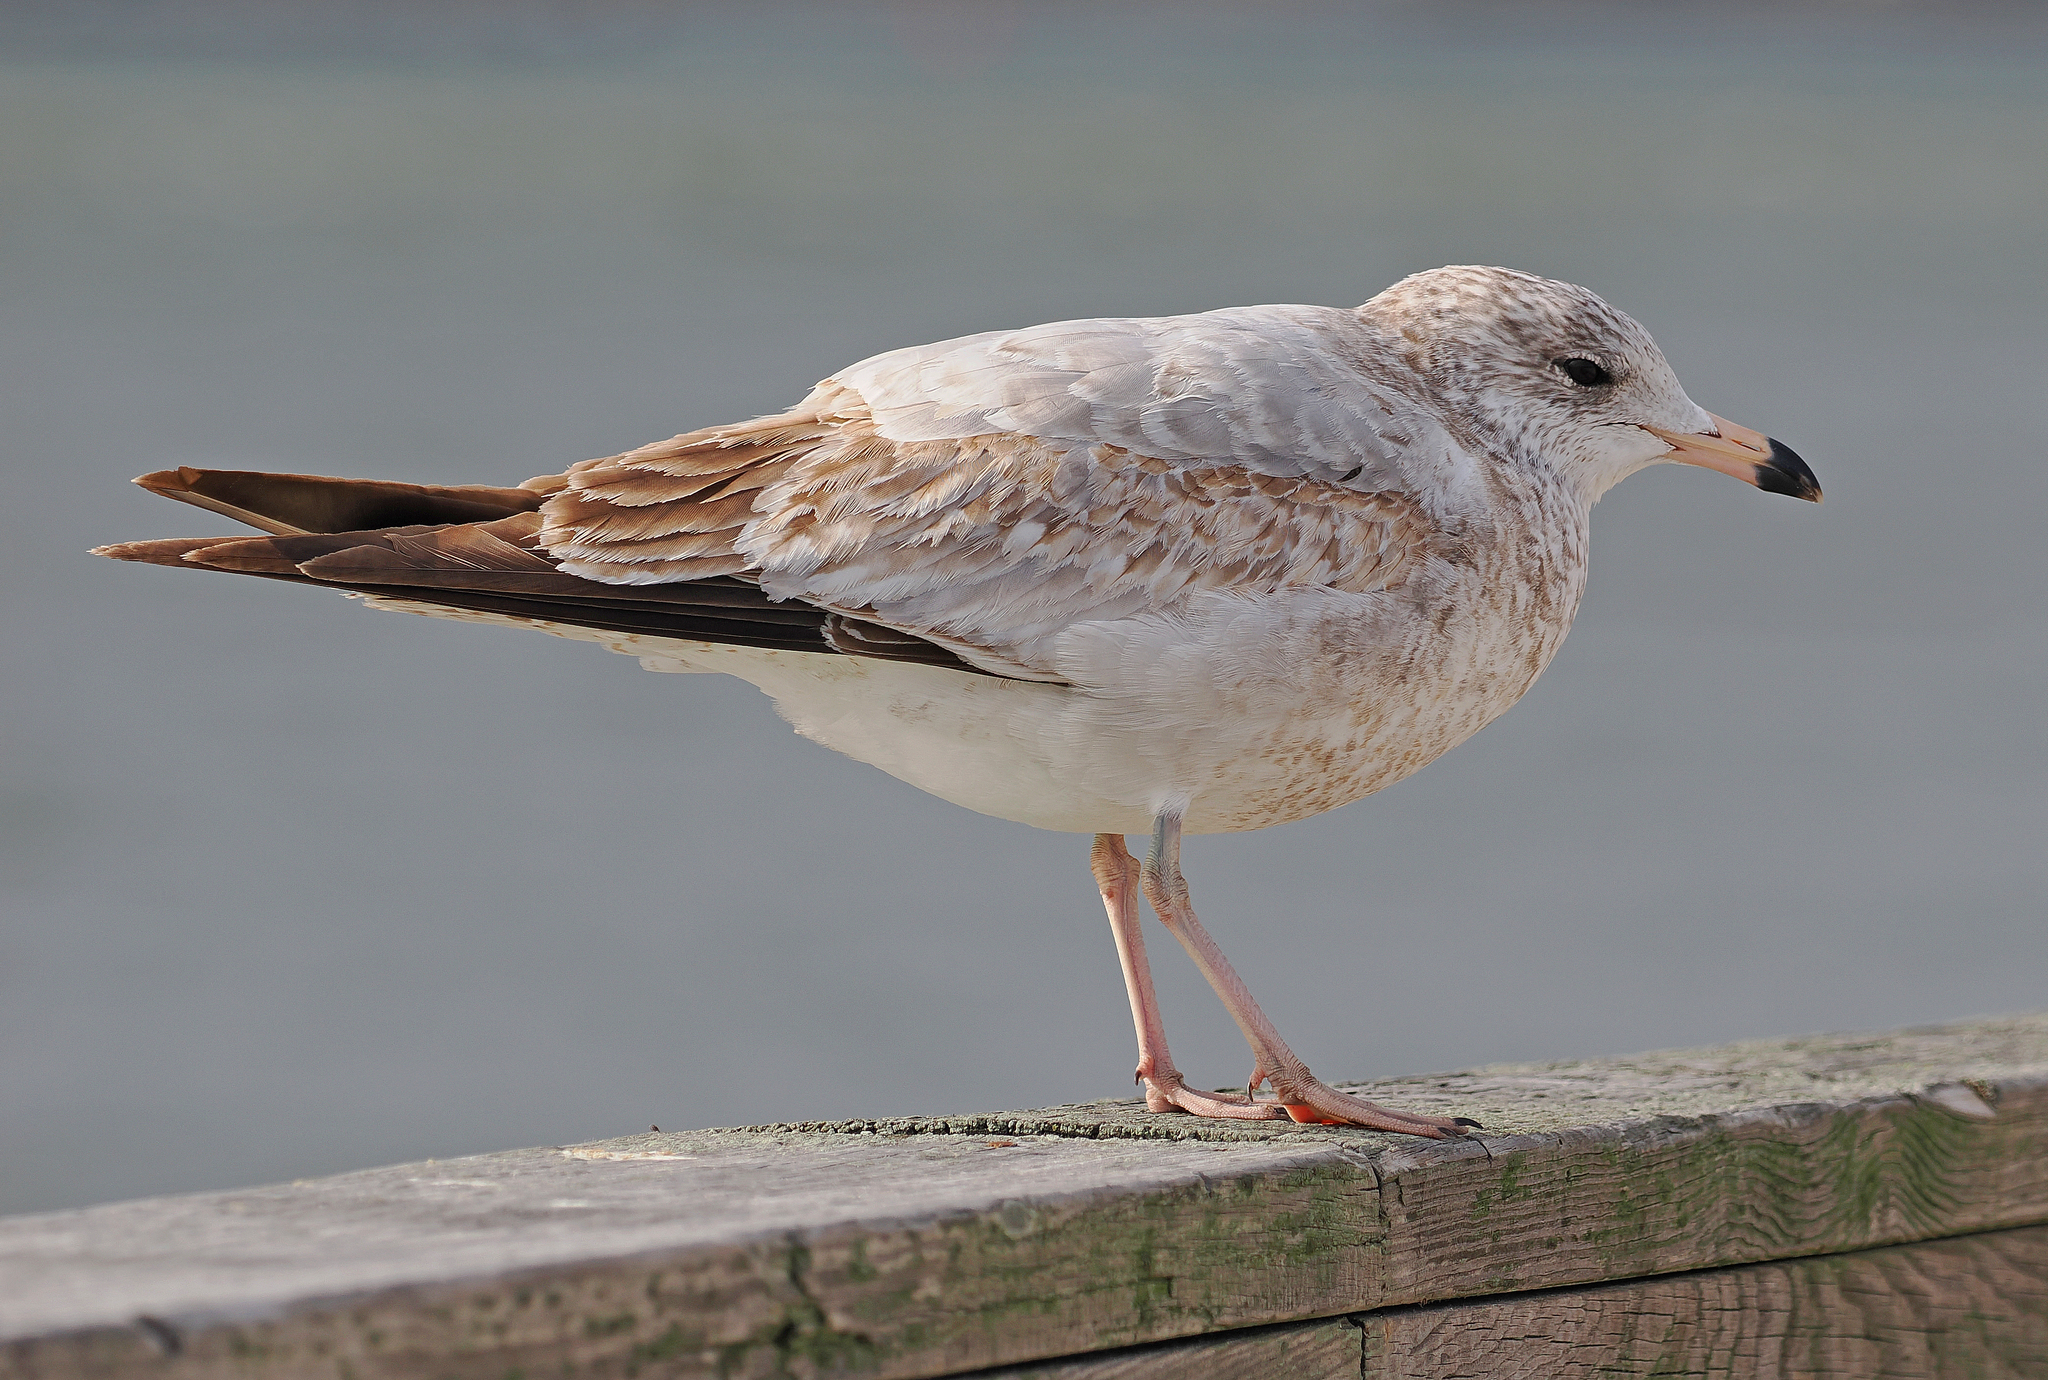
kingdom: Animalia
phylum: Chordata
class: Aves
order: Charadriiformes
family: Laridae
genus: Larus
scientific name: Larus delawarensis
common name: Ring-billed gull
